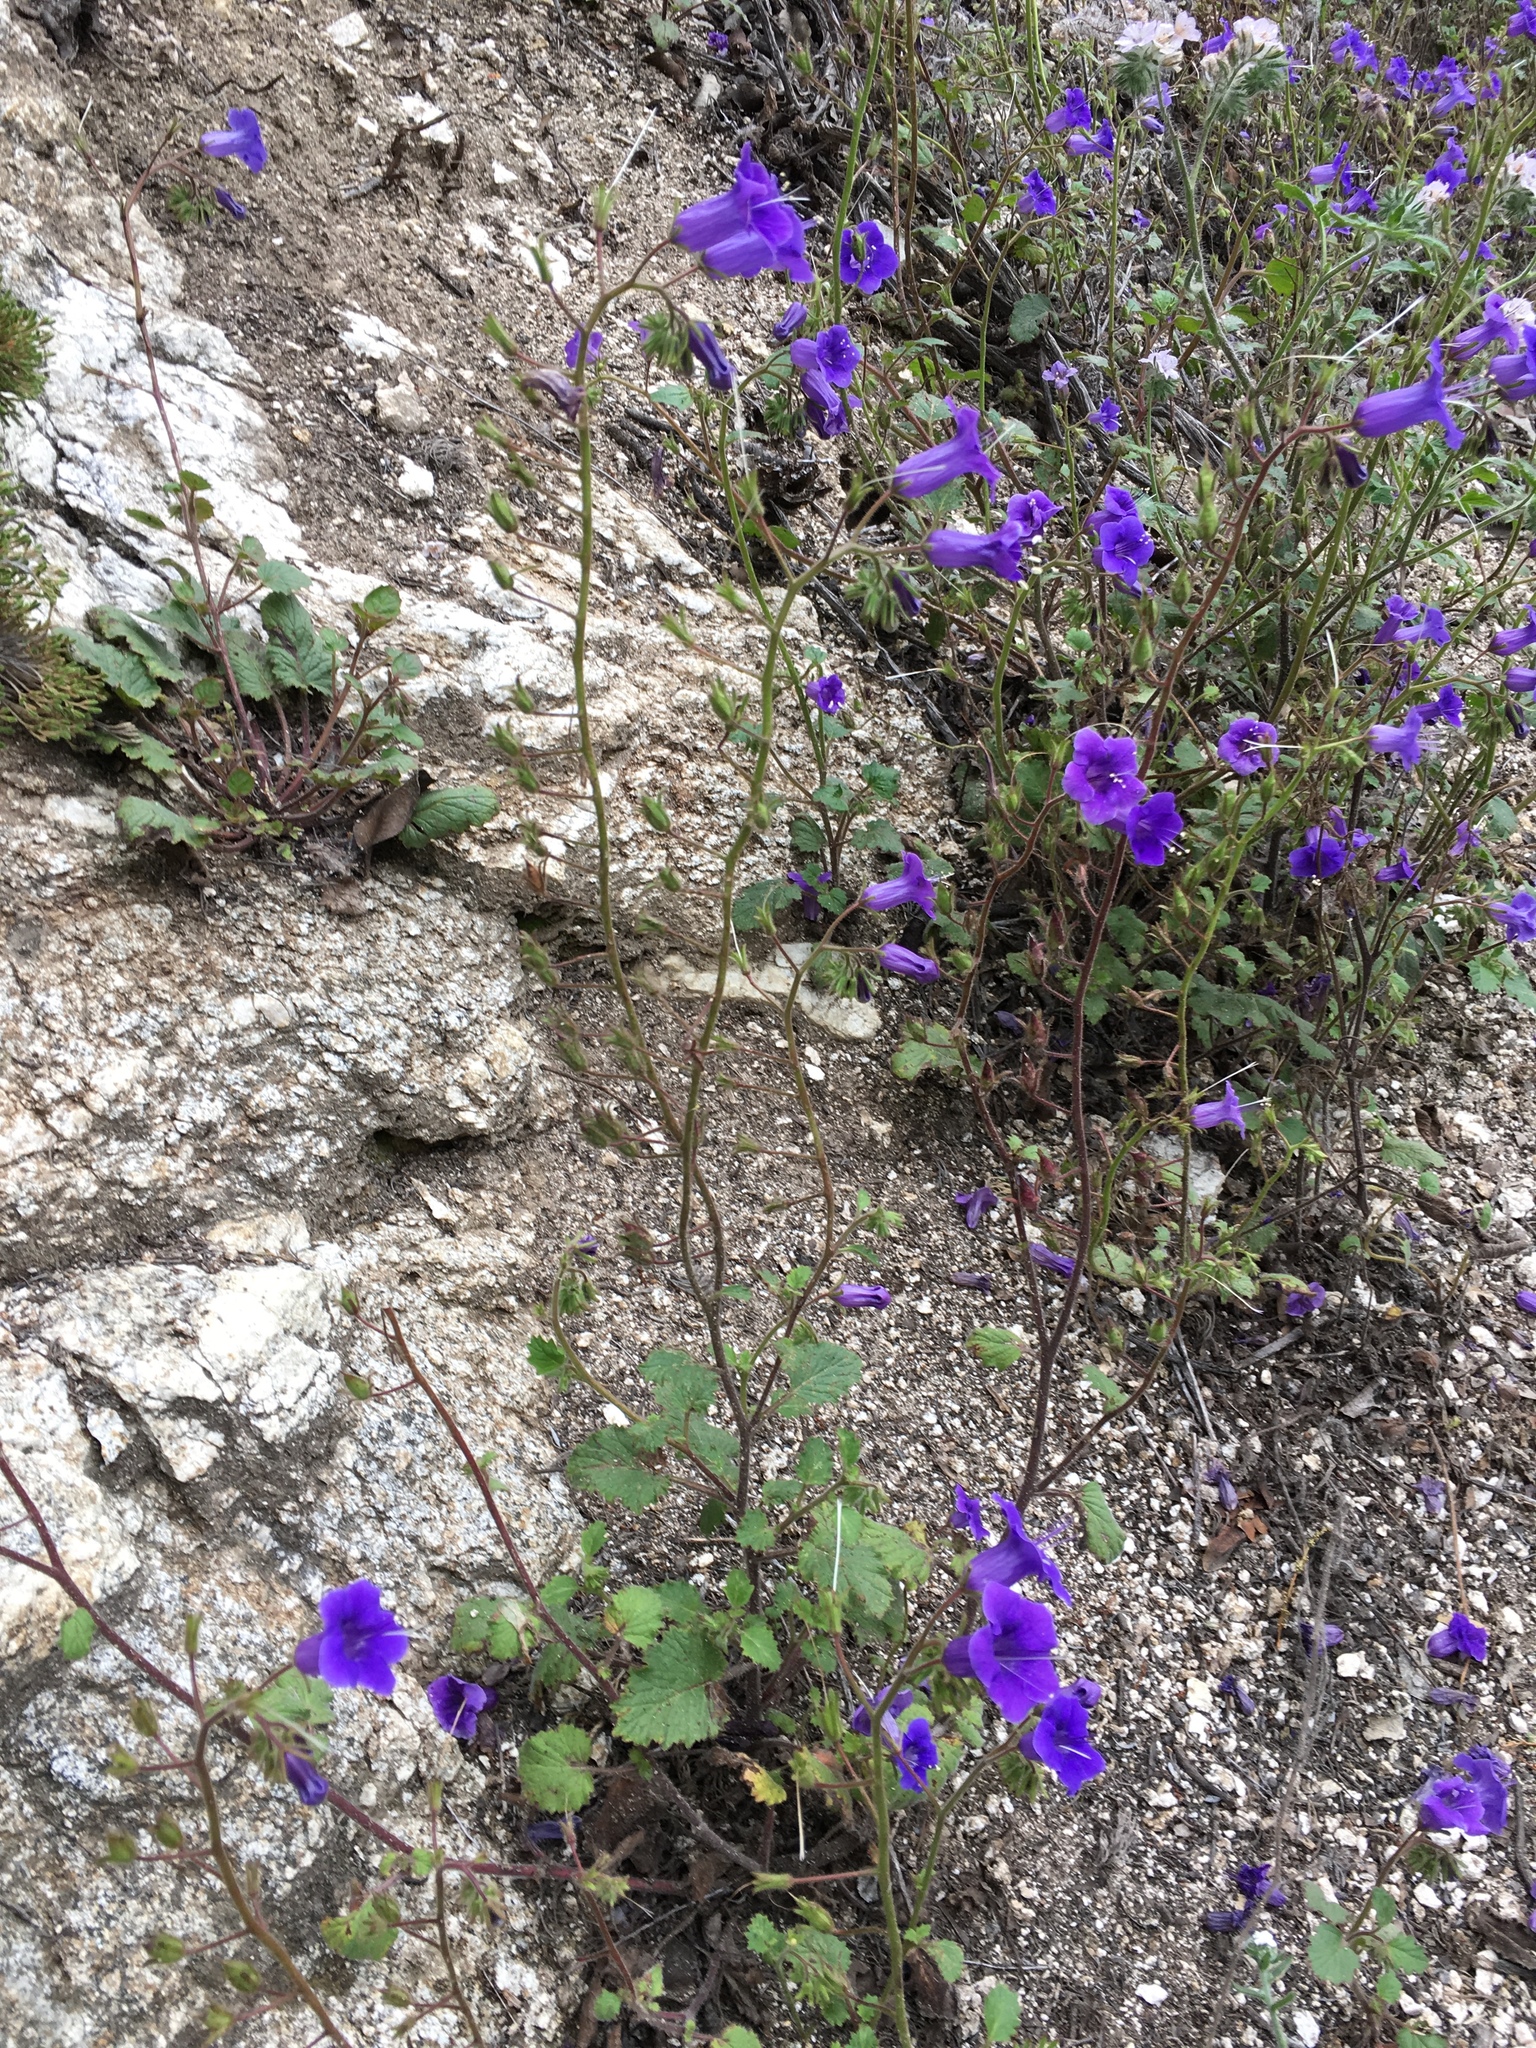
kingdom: Plantae
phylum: Tracheophyta
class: Magnoliopsida
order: Boraginales
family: Hydrophyllaceae
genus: Phacelia
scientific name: Phacelia minor
